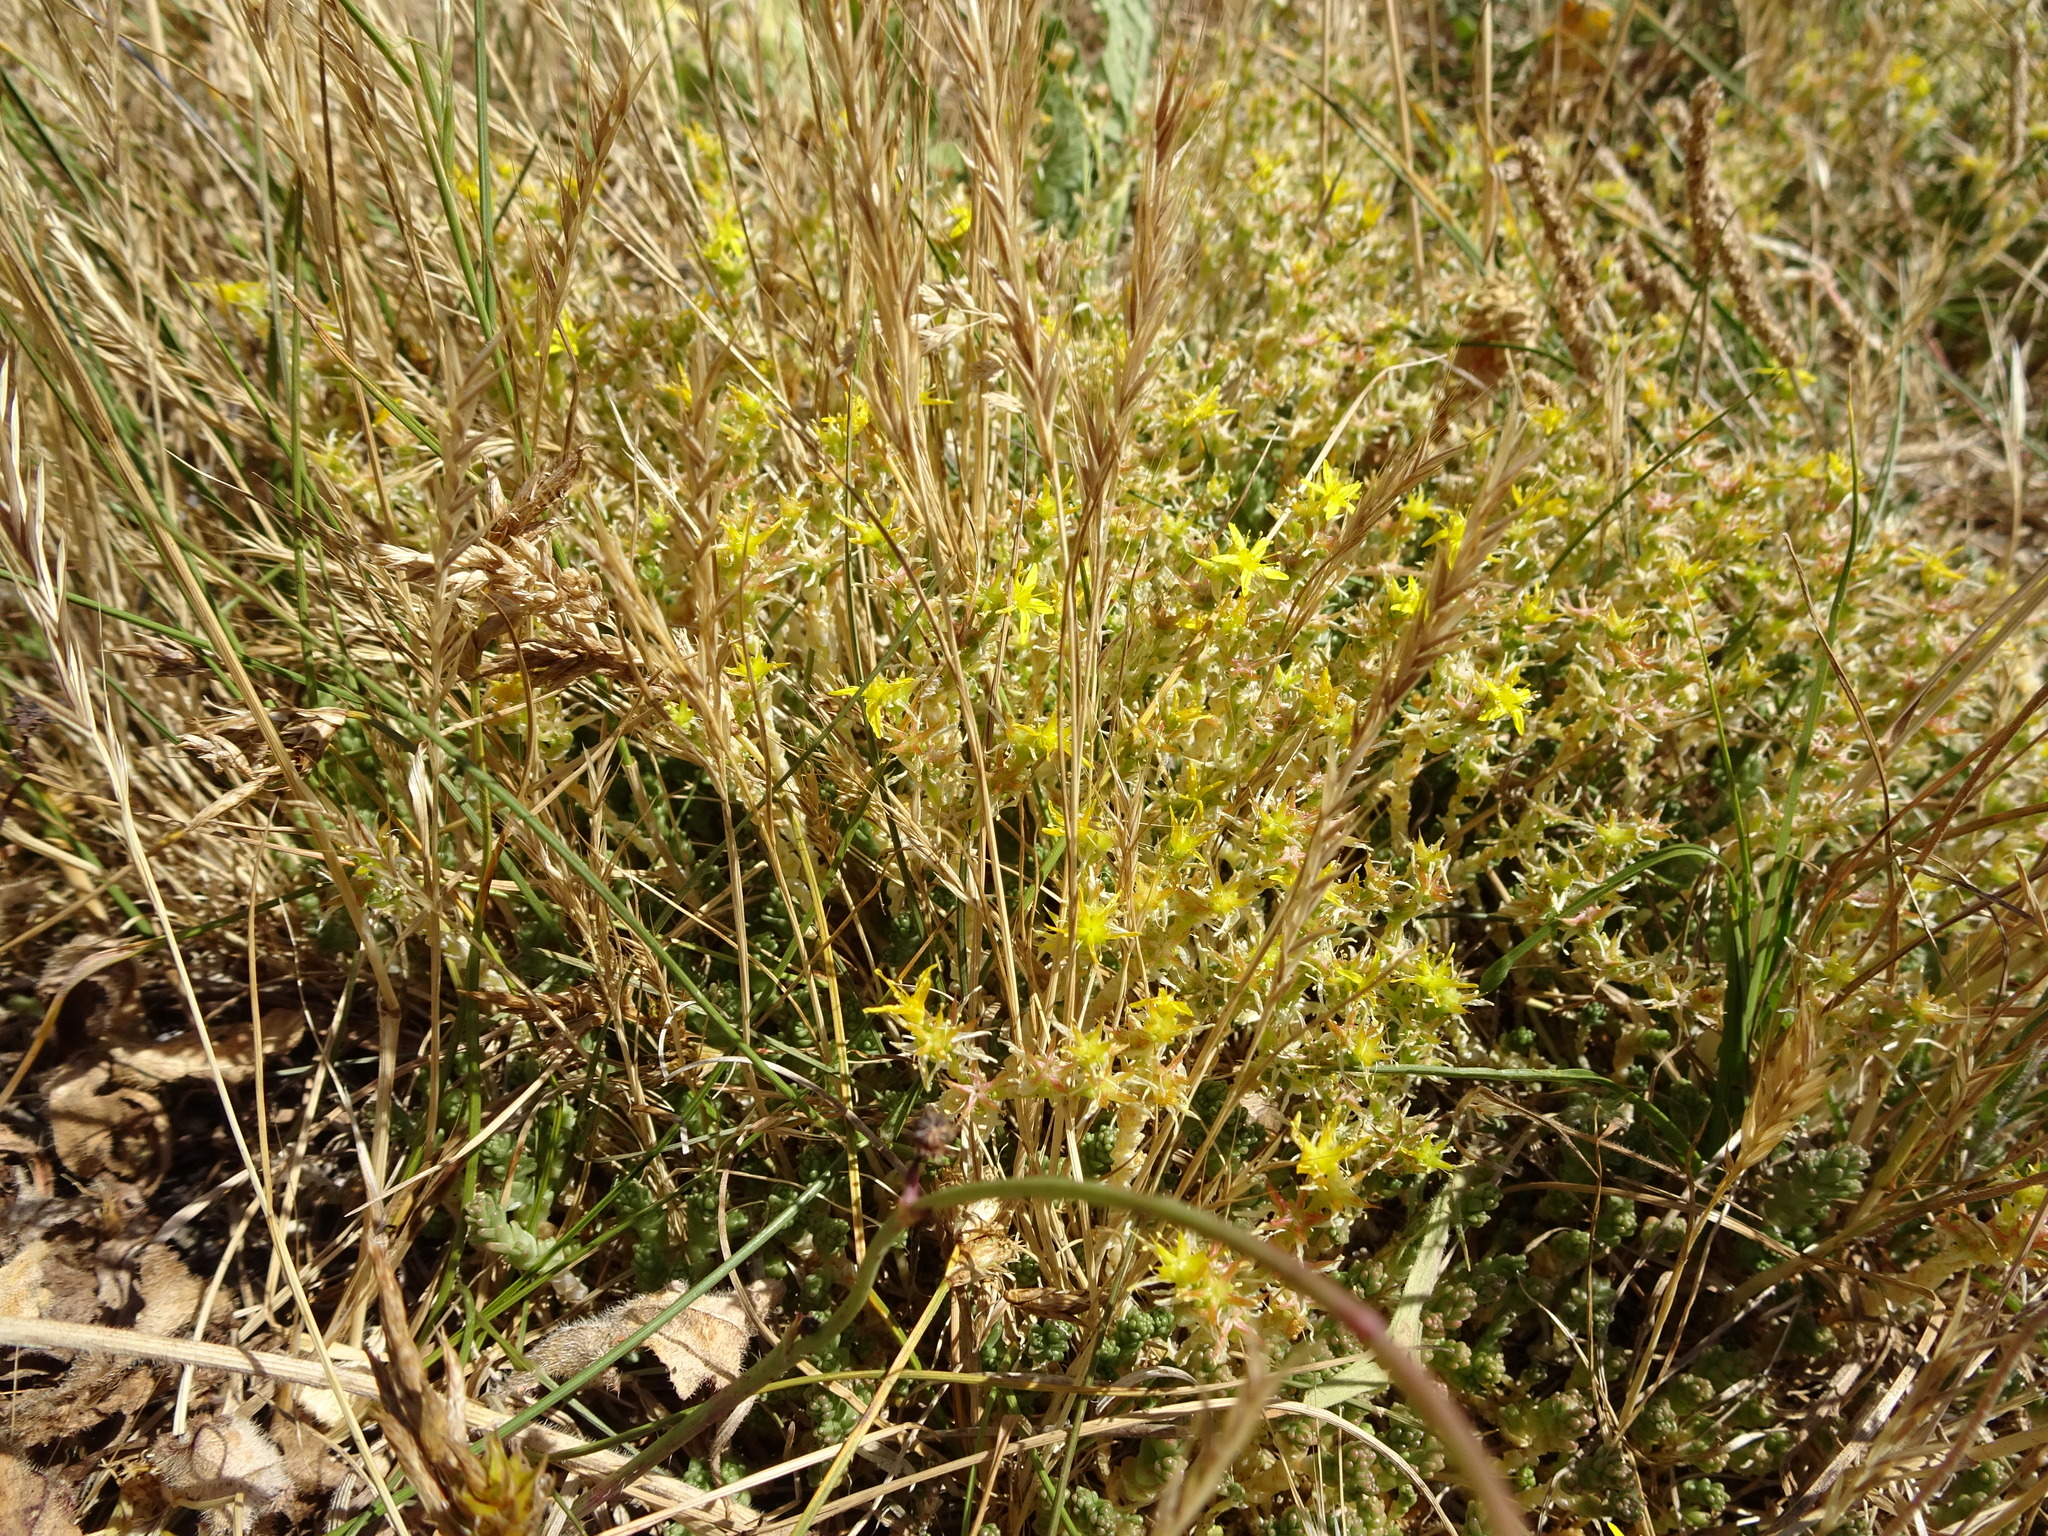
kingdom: Plantae
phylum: Tracheophyta
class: Magnoliopsida
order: Saxifragales
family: Crassulaceae
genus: Sedum
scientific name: Sedum acre
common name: Biting stonecrop
